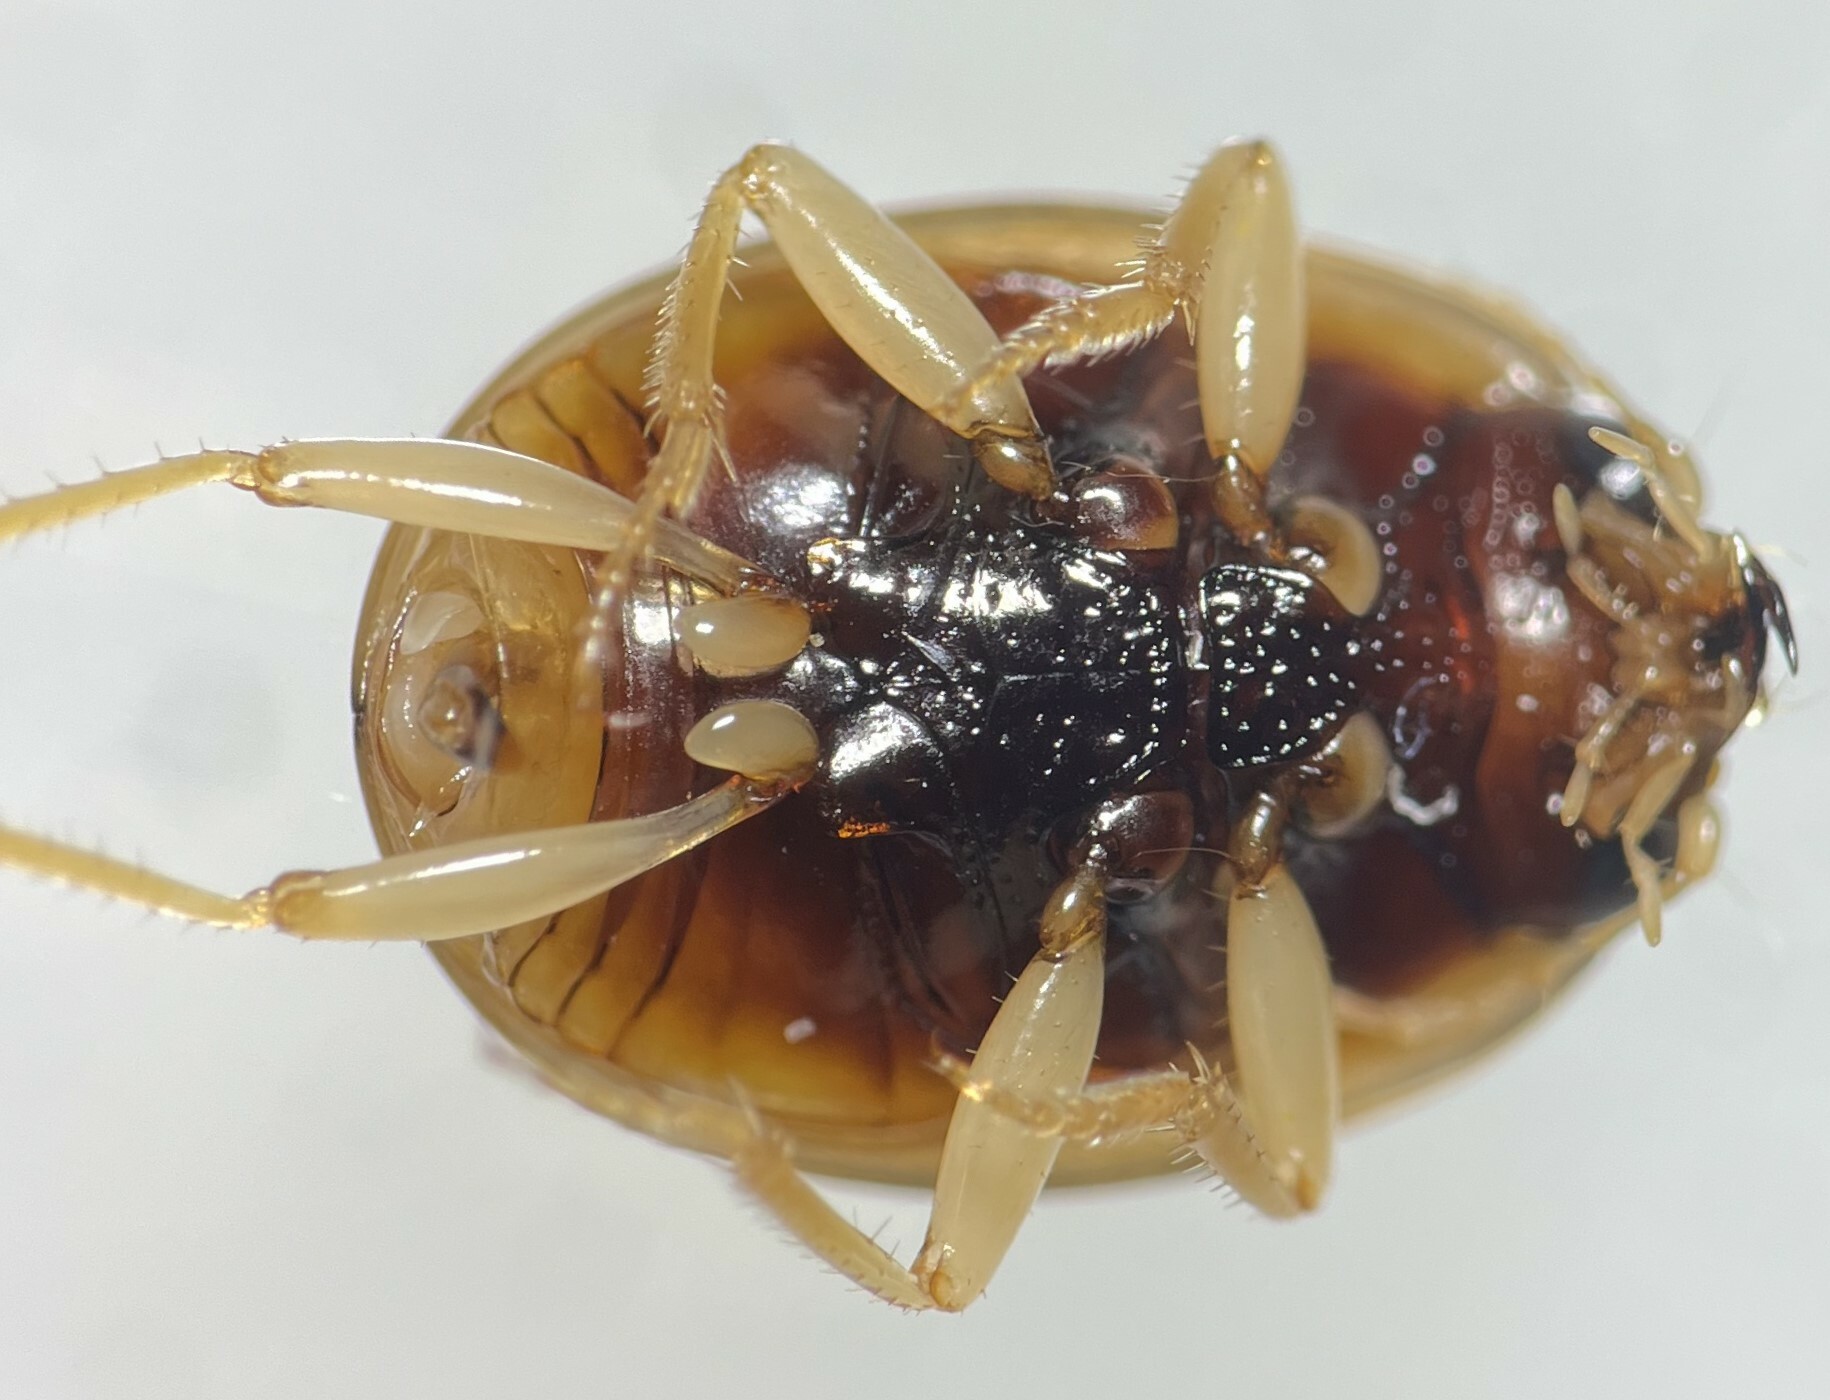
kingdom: Animalia
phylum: Arthropoda
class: Insecta
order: Coleoptera
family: Carabidae
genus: Omophron
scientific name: Omophron labiatum
